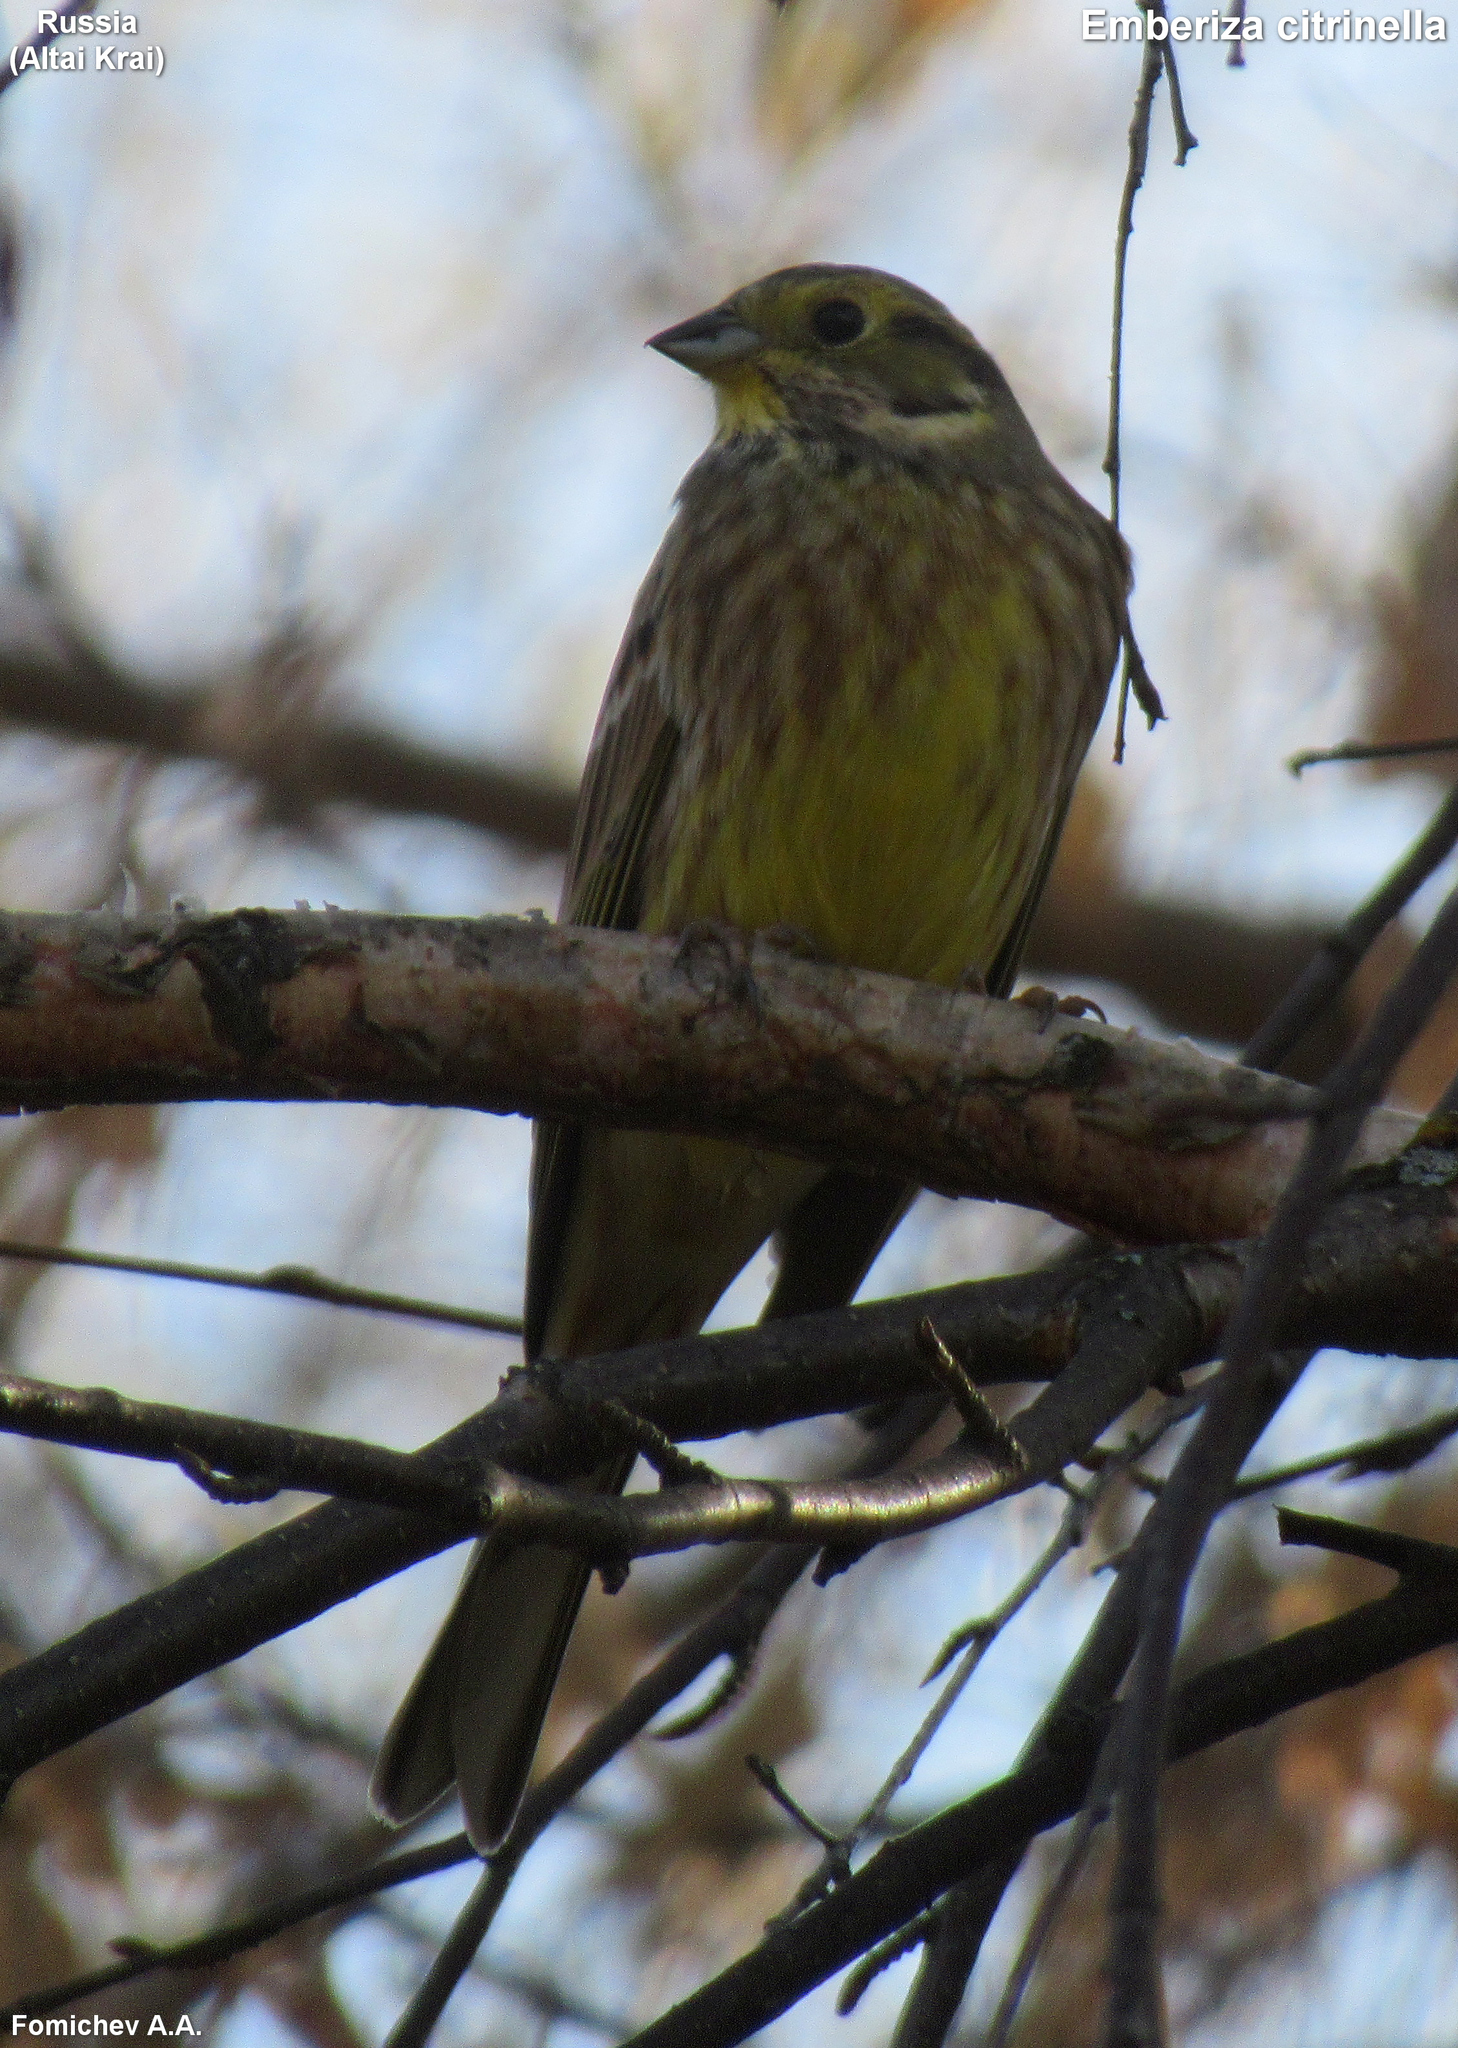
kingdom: Animalia
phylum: Chordata
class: Aves
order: Passeriformes
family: Emberizidae
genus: Emberiza
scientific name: Emberiza citrinella
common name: Yellowhammer
